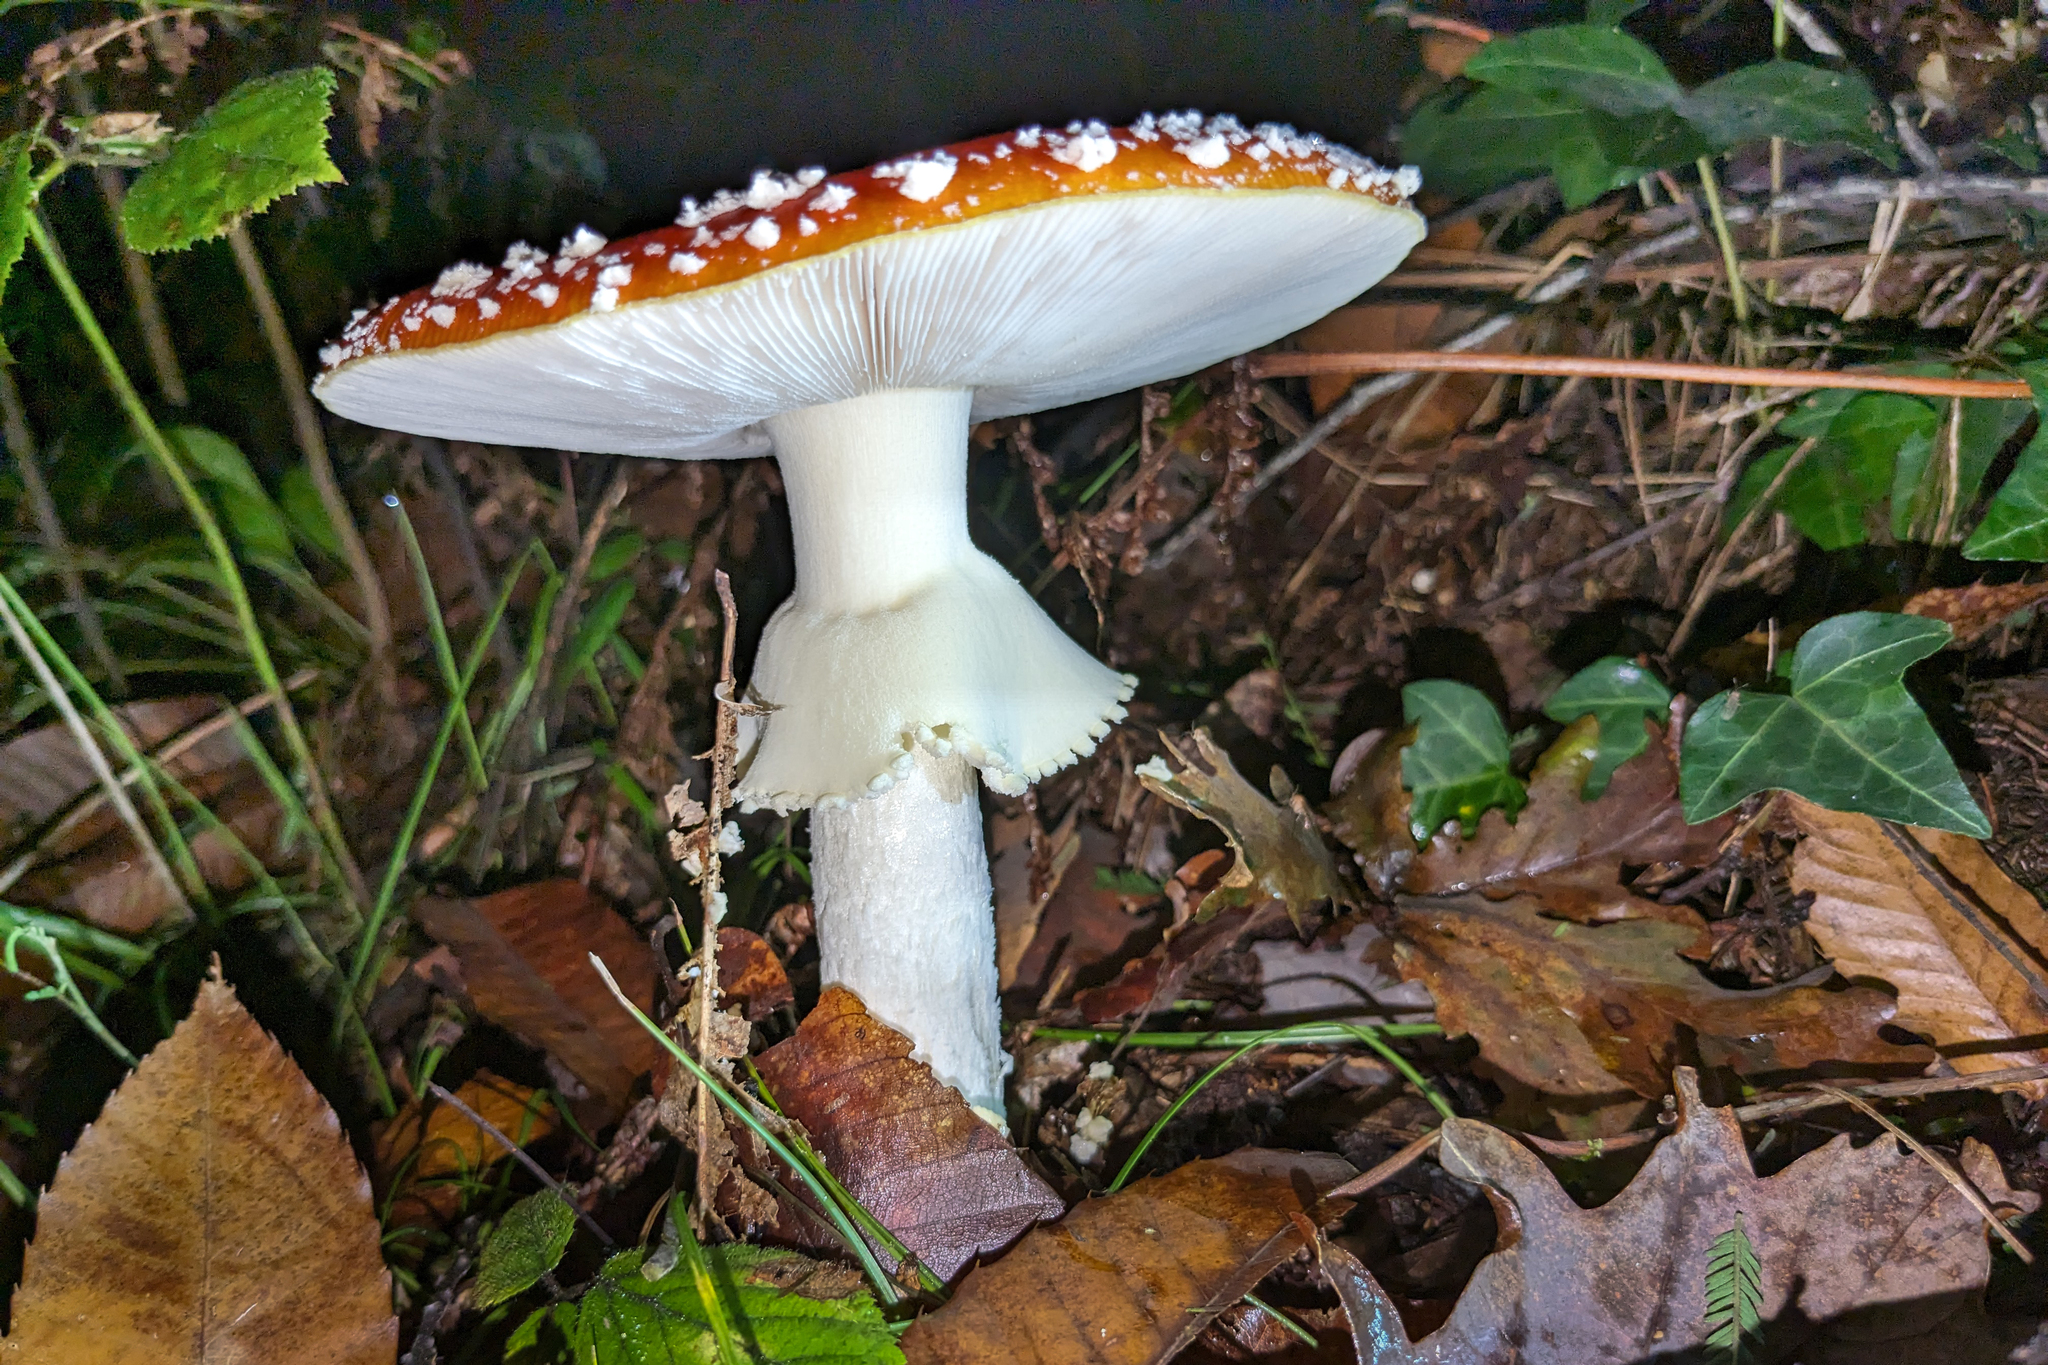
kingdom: Fungi
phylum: Basidiomycota
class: Agaricomycetes
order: Agaricales
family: Amanitaceae
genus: Amanita
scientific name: Amanita muscaria
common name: Fly agaric
